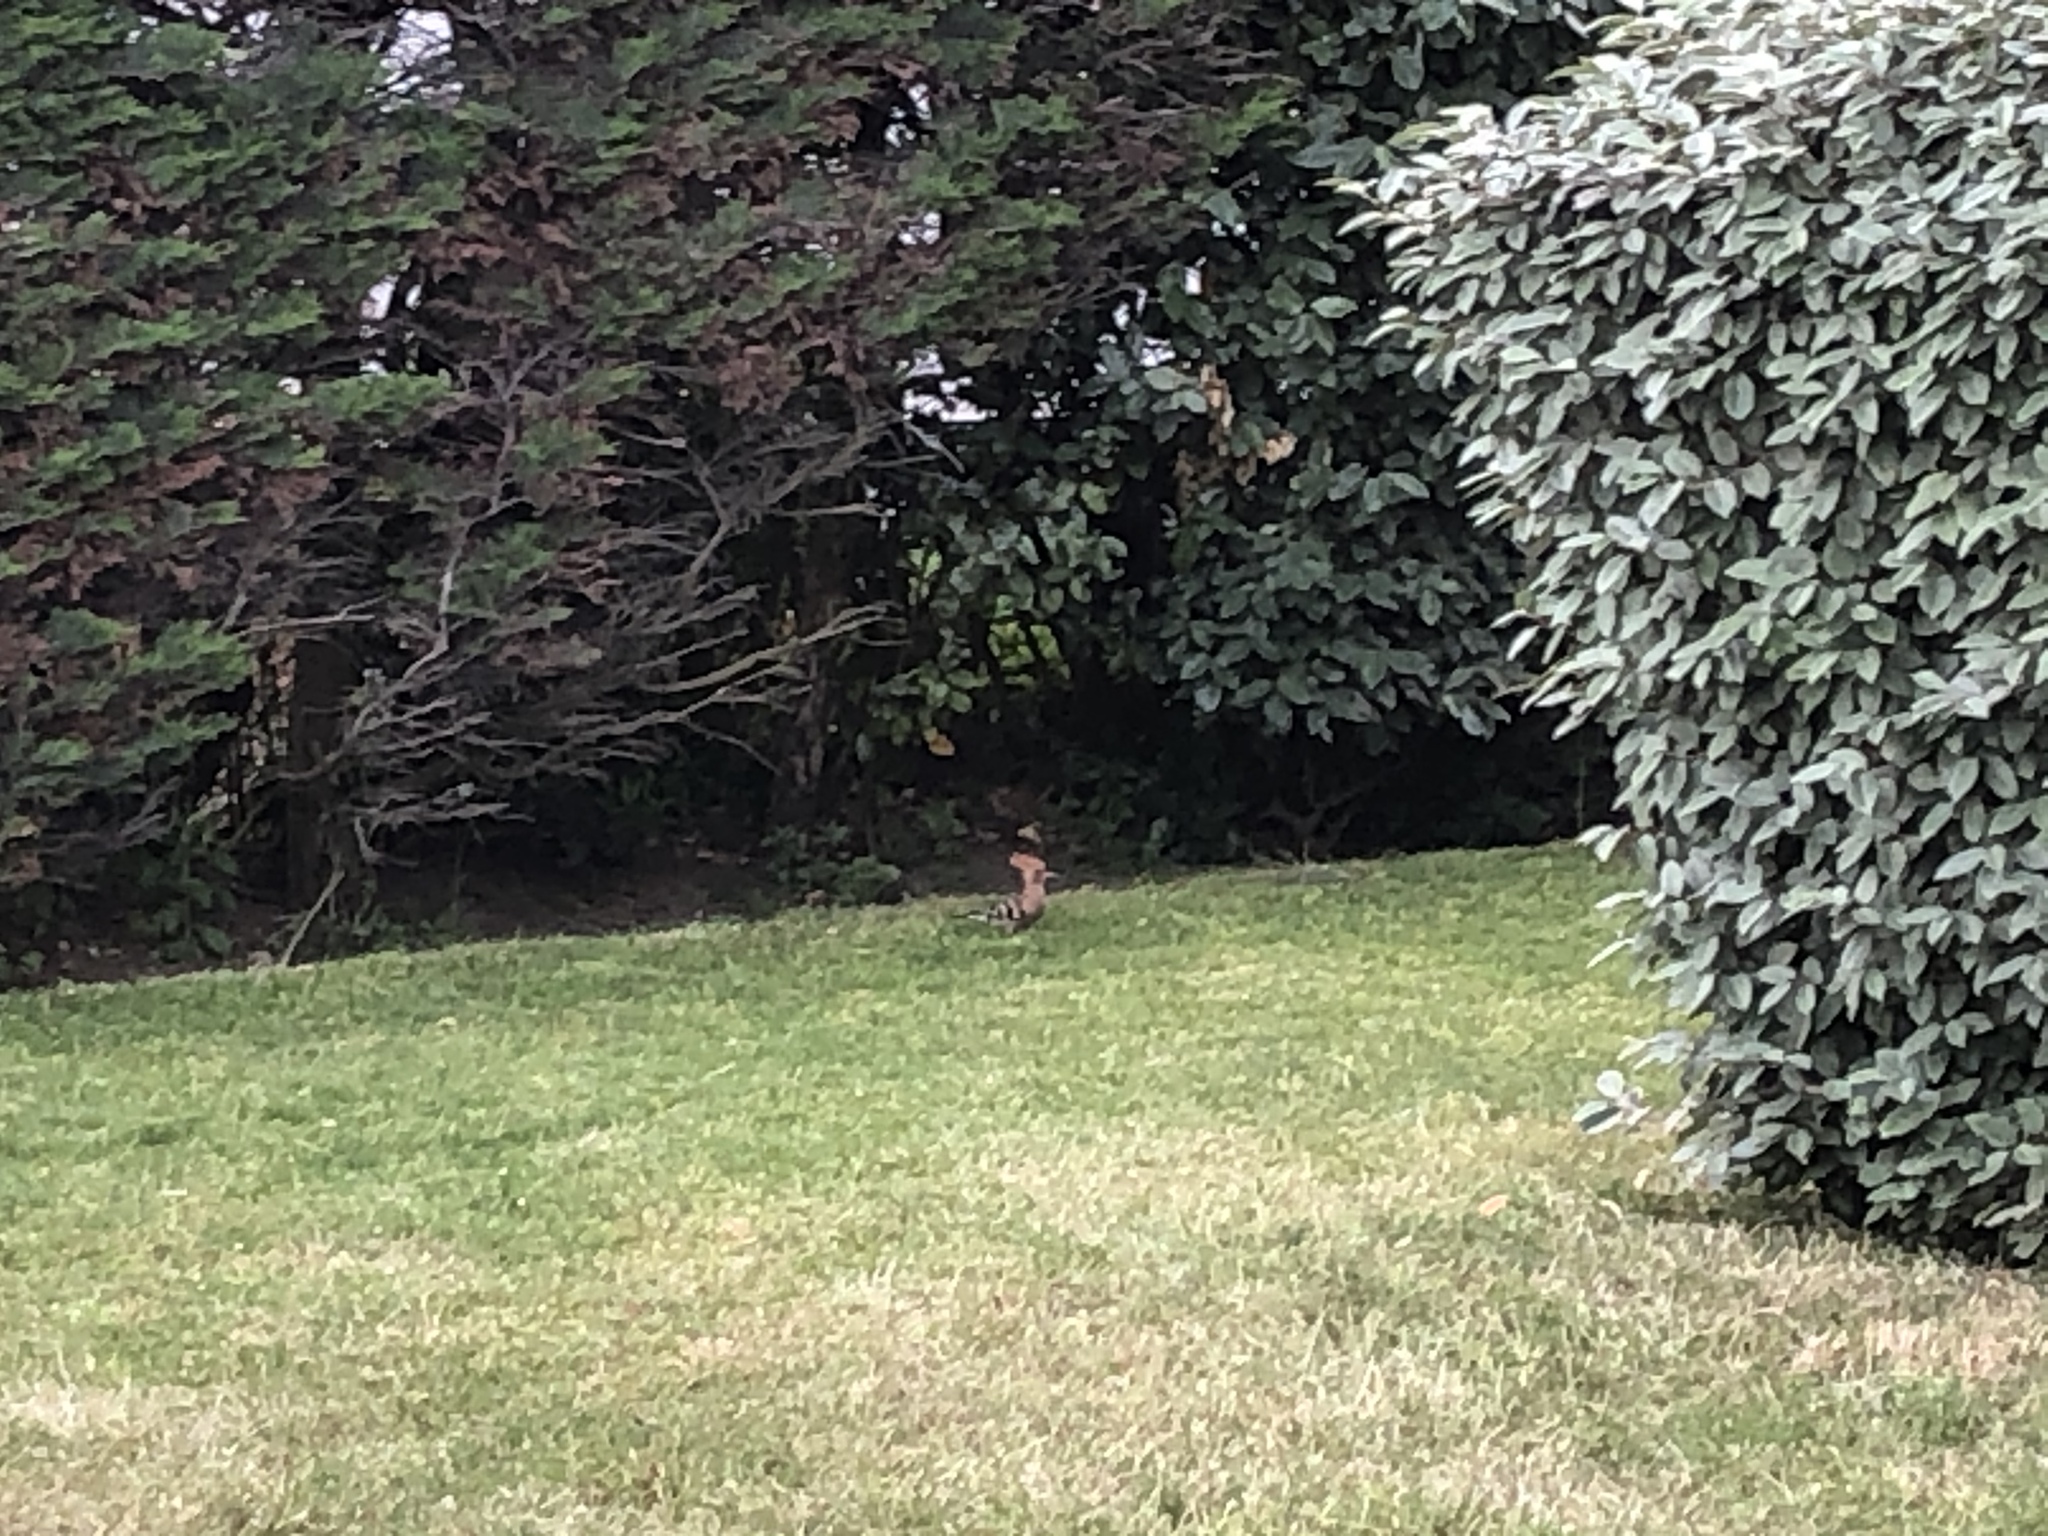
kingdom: Animalia
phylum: Chordata
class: Aves
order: Bucerotiformes
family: Upupidae
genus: Upupa
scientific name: Upupa epops
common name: Eurasian hoopoe
